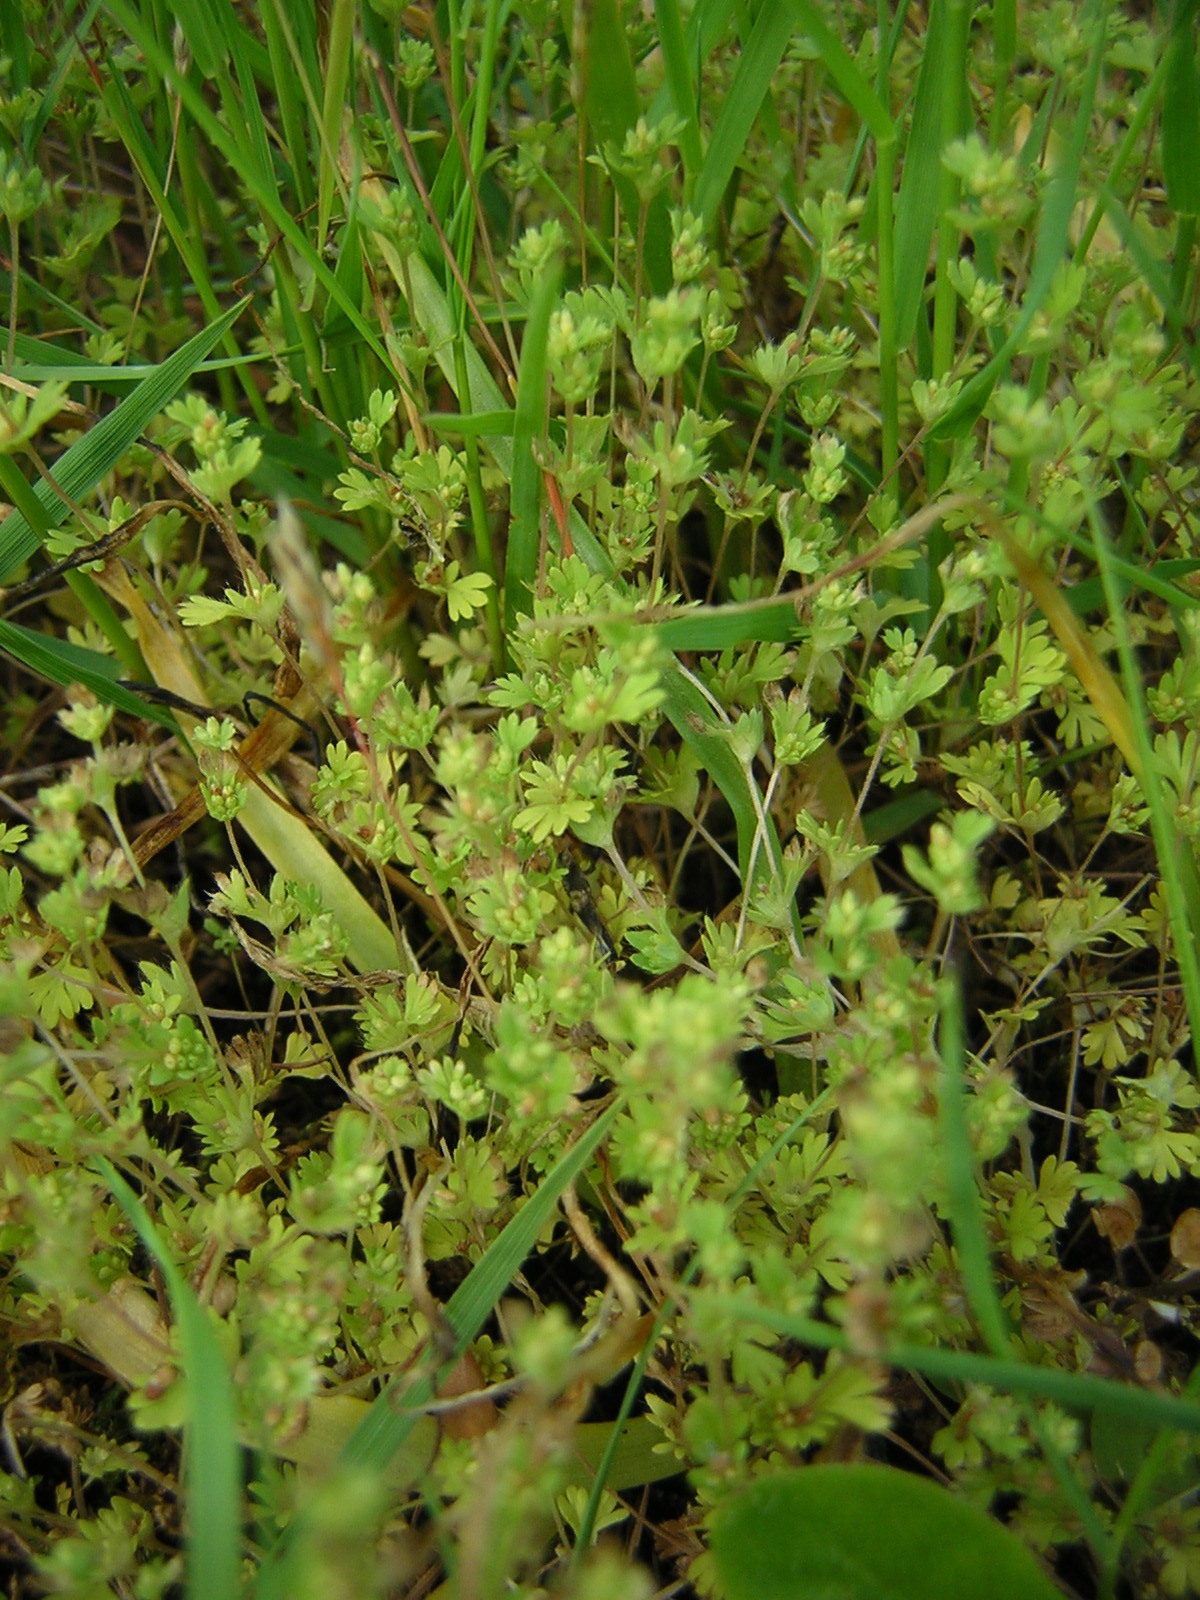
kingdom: Plantae
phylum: Tracheophyta
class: Magnoliopsida
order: Rosales
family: Rosaceae
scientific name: Rosaceae
